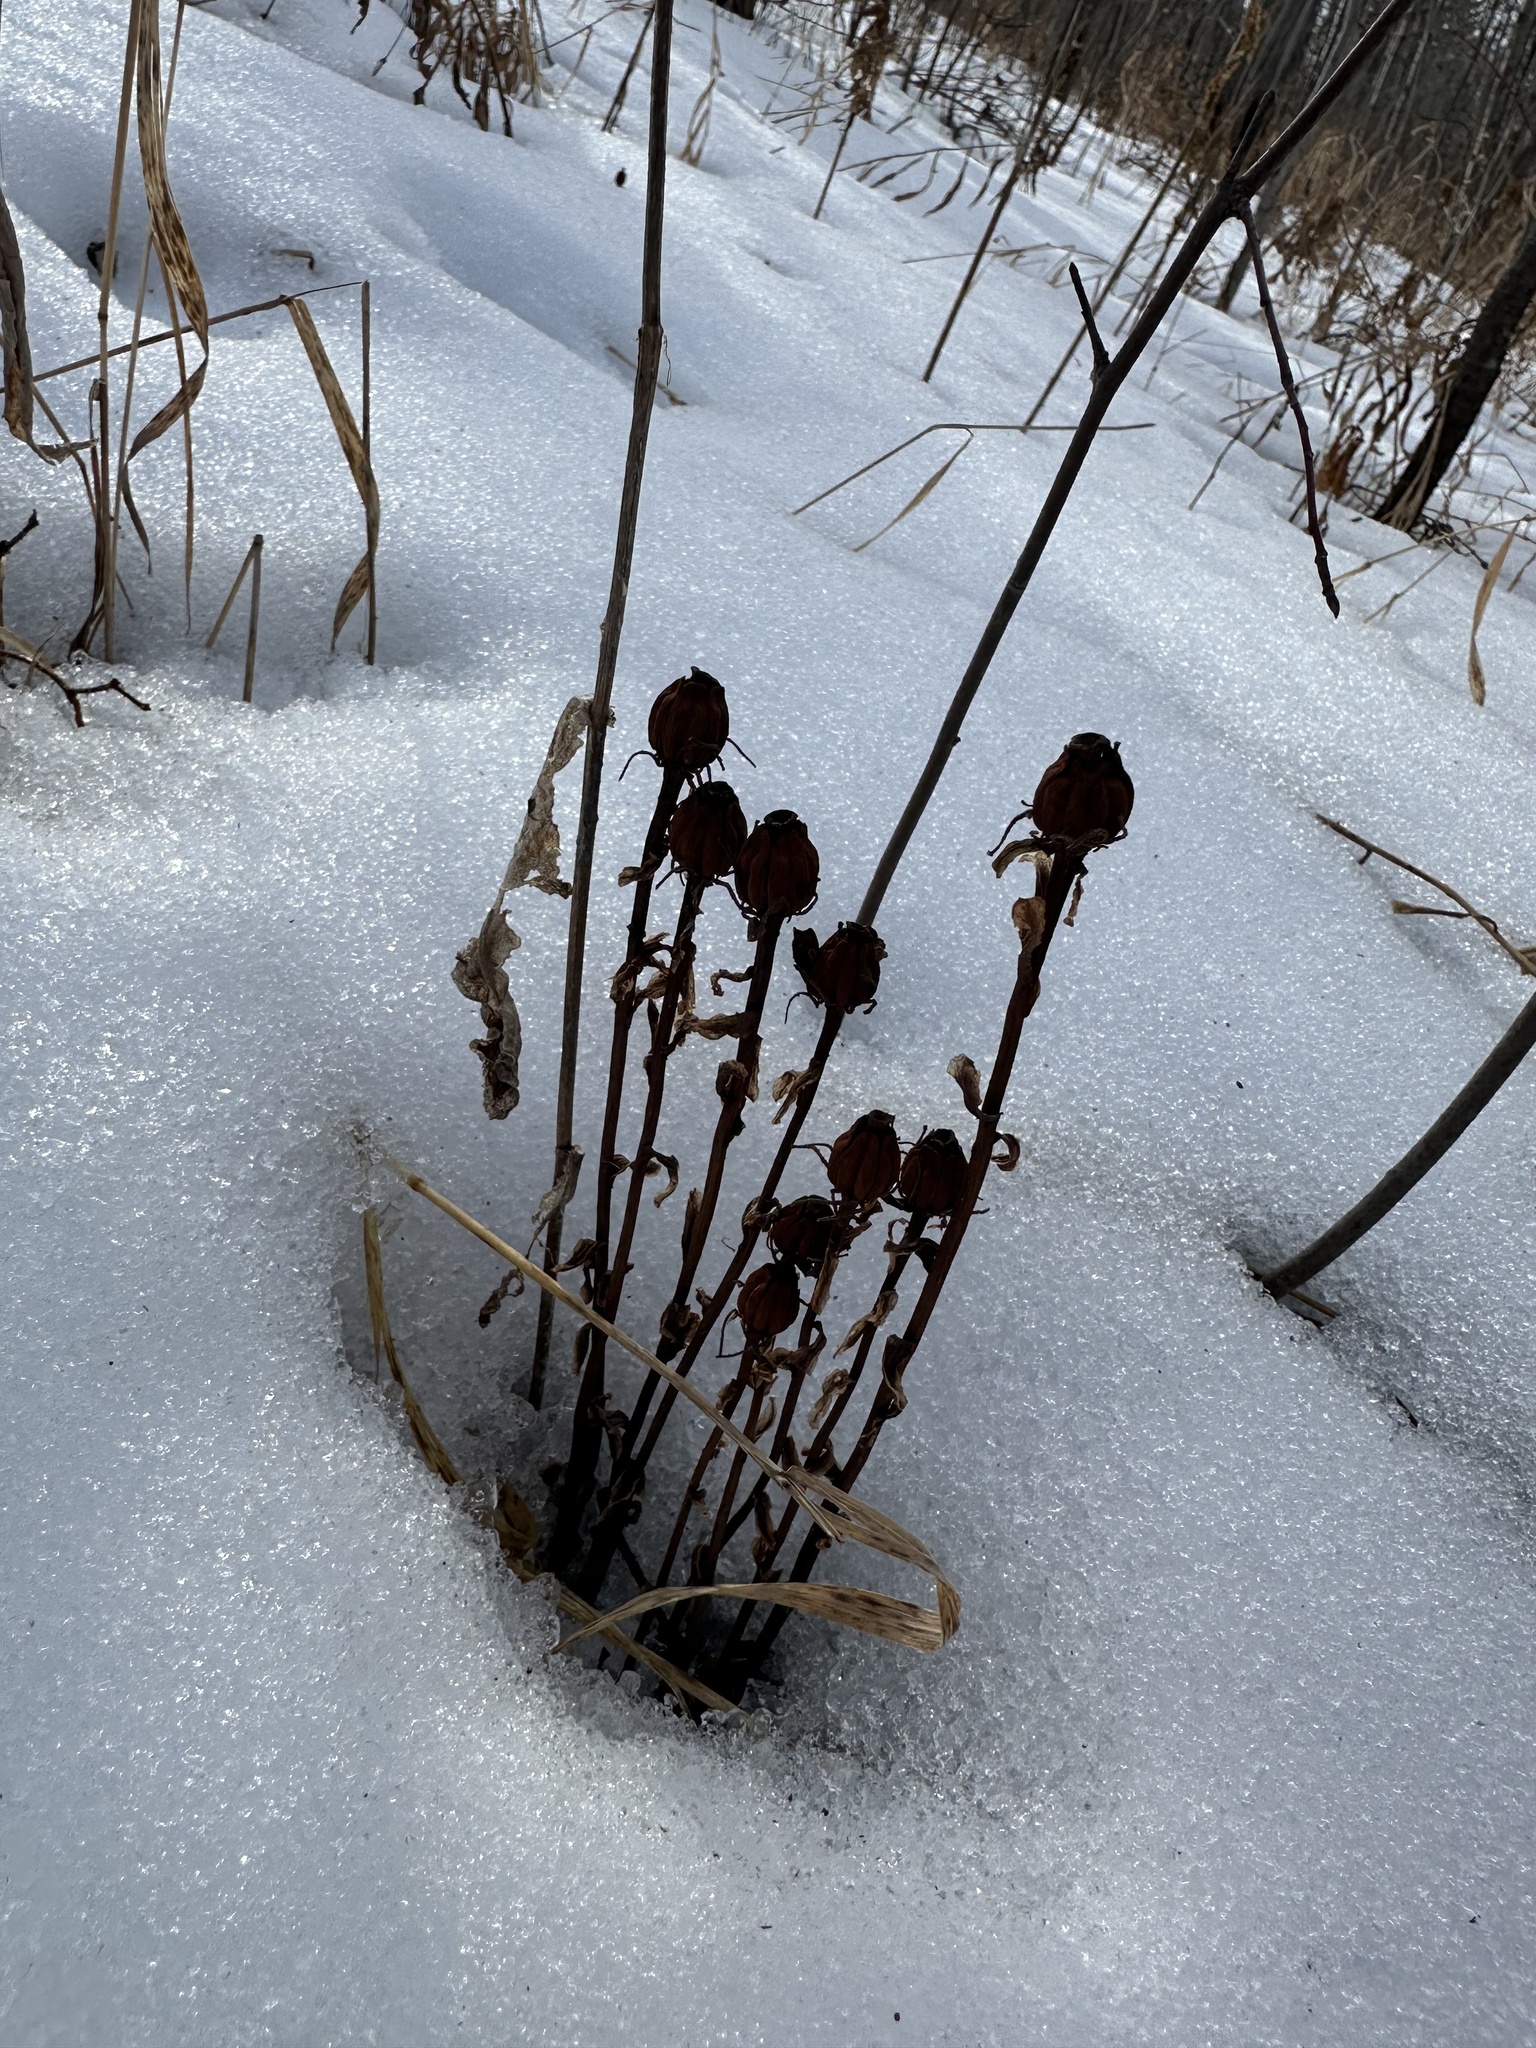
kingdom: Plantae
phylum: Tracheophyta
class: Magnoliopsida
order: Ericales
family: Ericaceae
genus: Monotropa
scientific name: Monotropa uniflora
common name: Convulsion root
